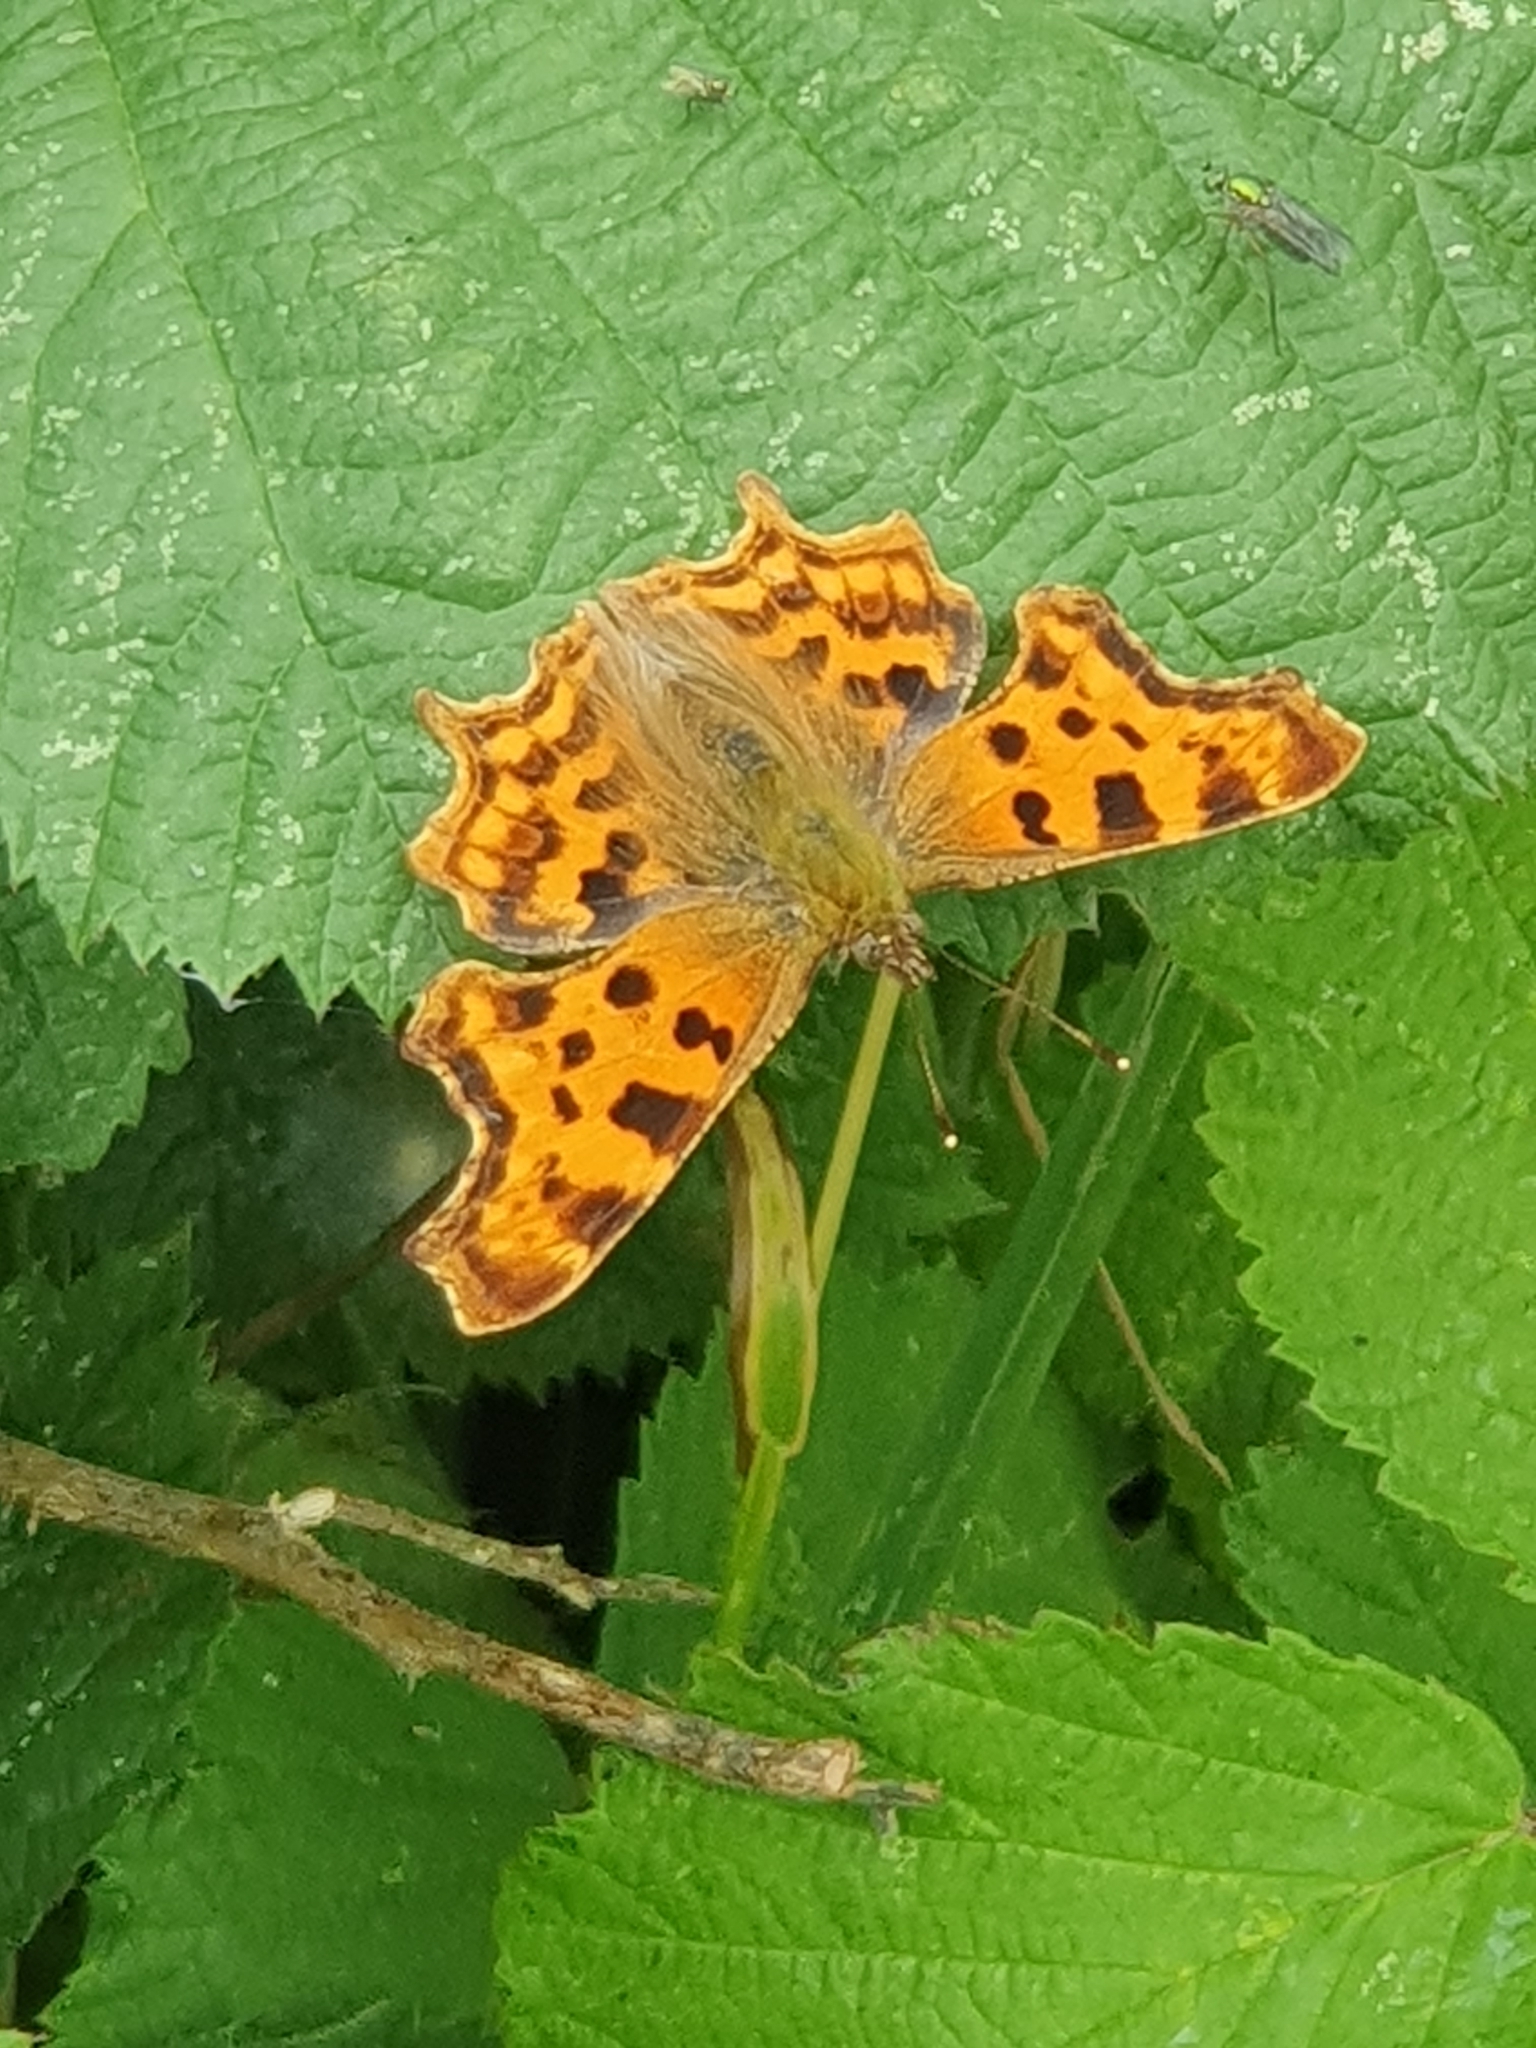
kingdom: Animalia
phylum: Arthropoda
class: Insecta
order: Lepidoptera
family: Nymphalidae
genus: Polygonia
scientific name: Polygonia c-album
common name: Comma
